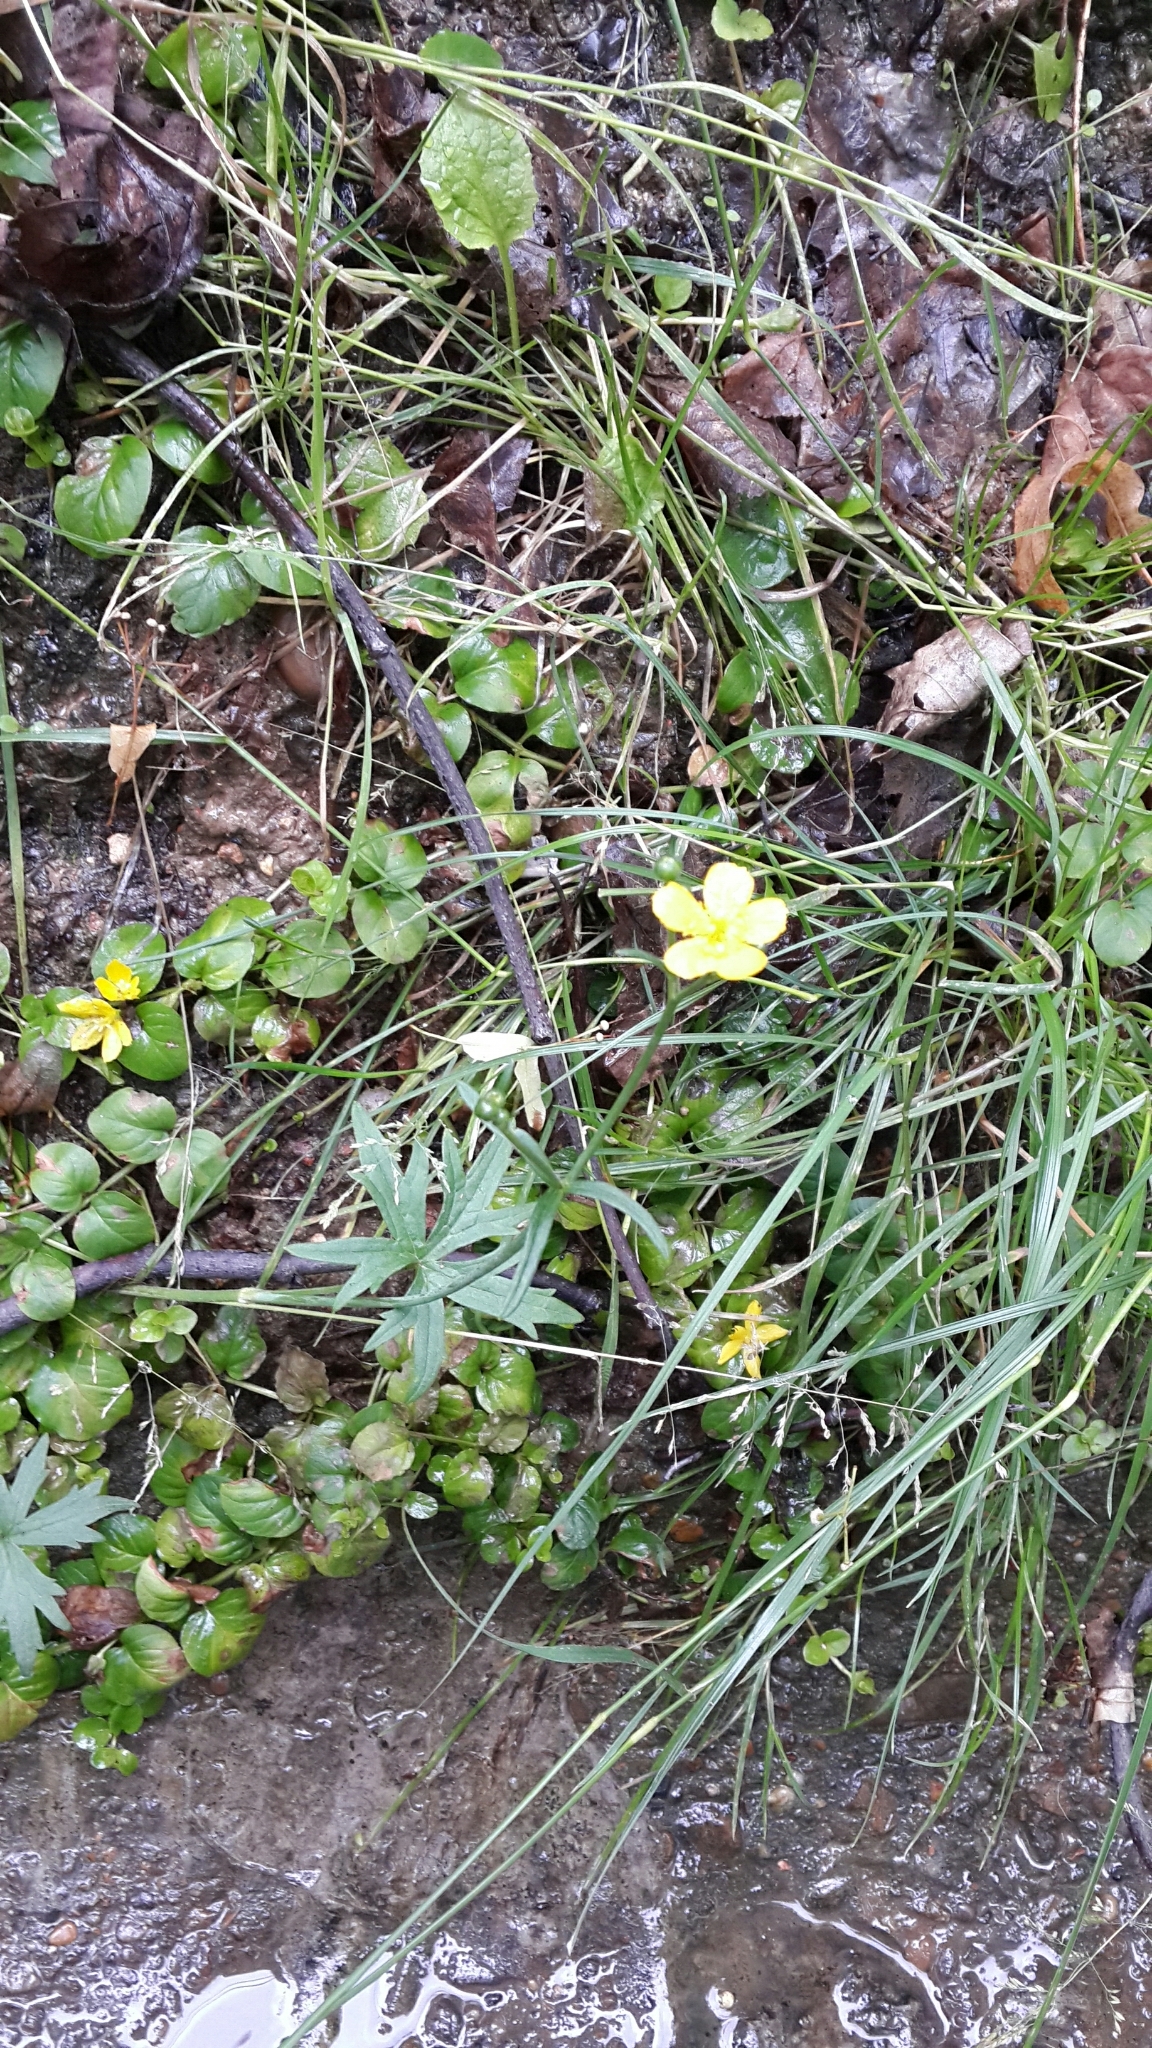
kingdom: Plantae
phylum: Tracheophyta
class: Magnoliopsida
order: Ranunculales
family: Ranunculaceae
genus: Ranunculus
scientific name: Ranunculus acris
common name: Meadow buttercup
